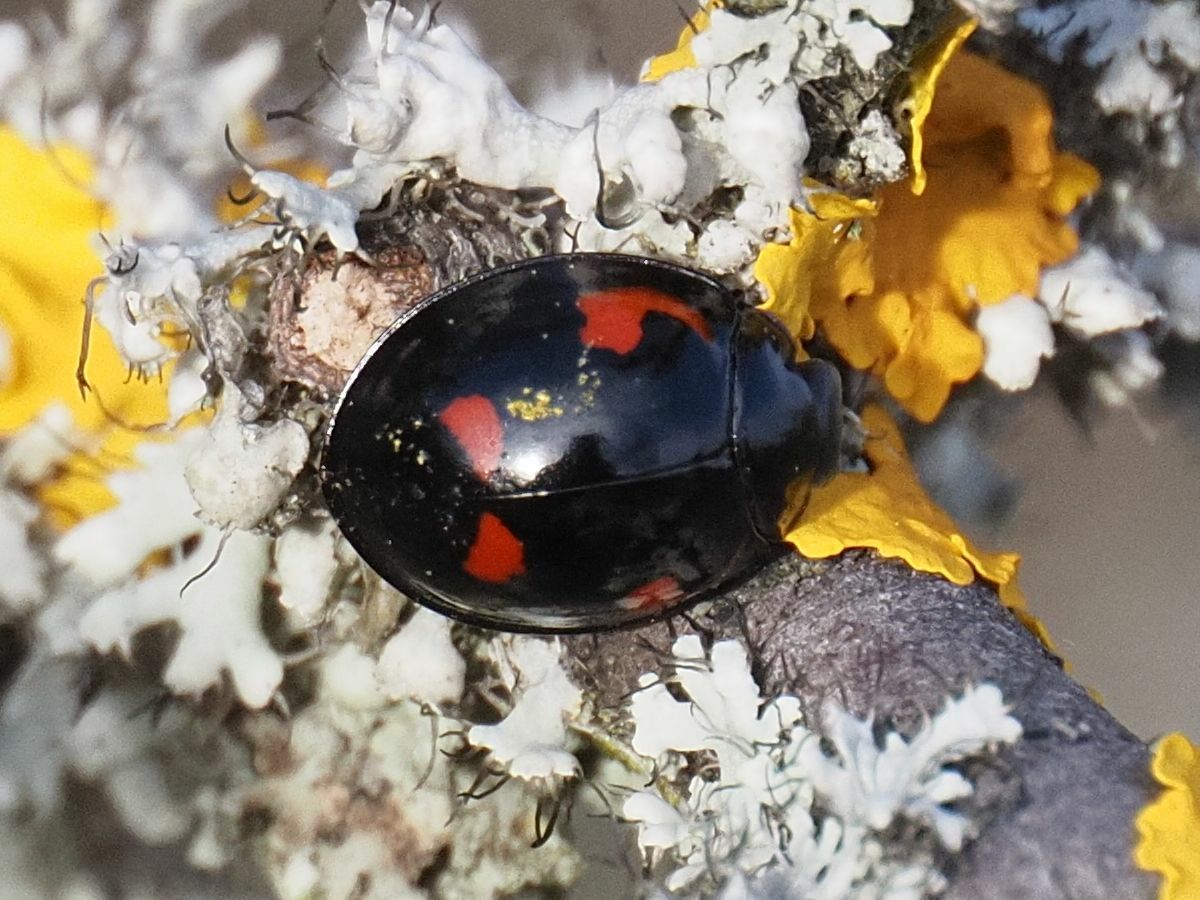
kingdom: Animalia
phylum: Arthropoda
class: Insecta
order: Coleoptera
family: Coccinellidae
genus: Brumus
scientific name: Brumus quadripustulatus
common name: Ladybird beetle
